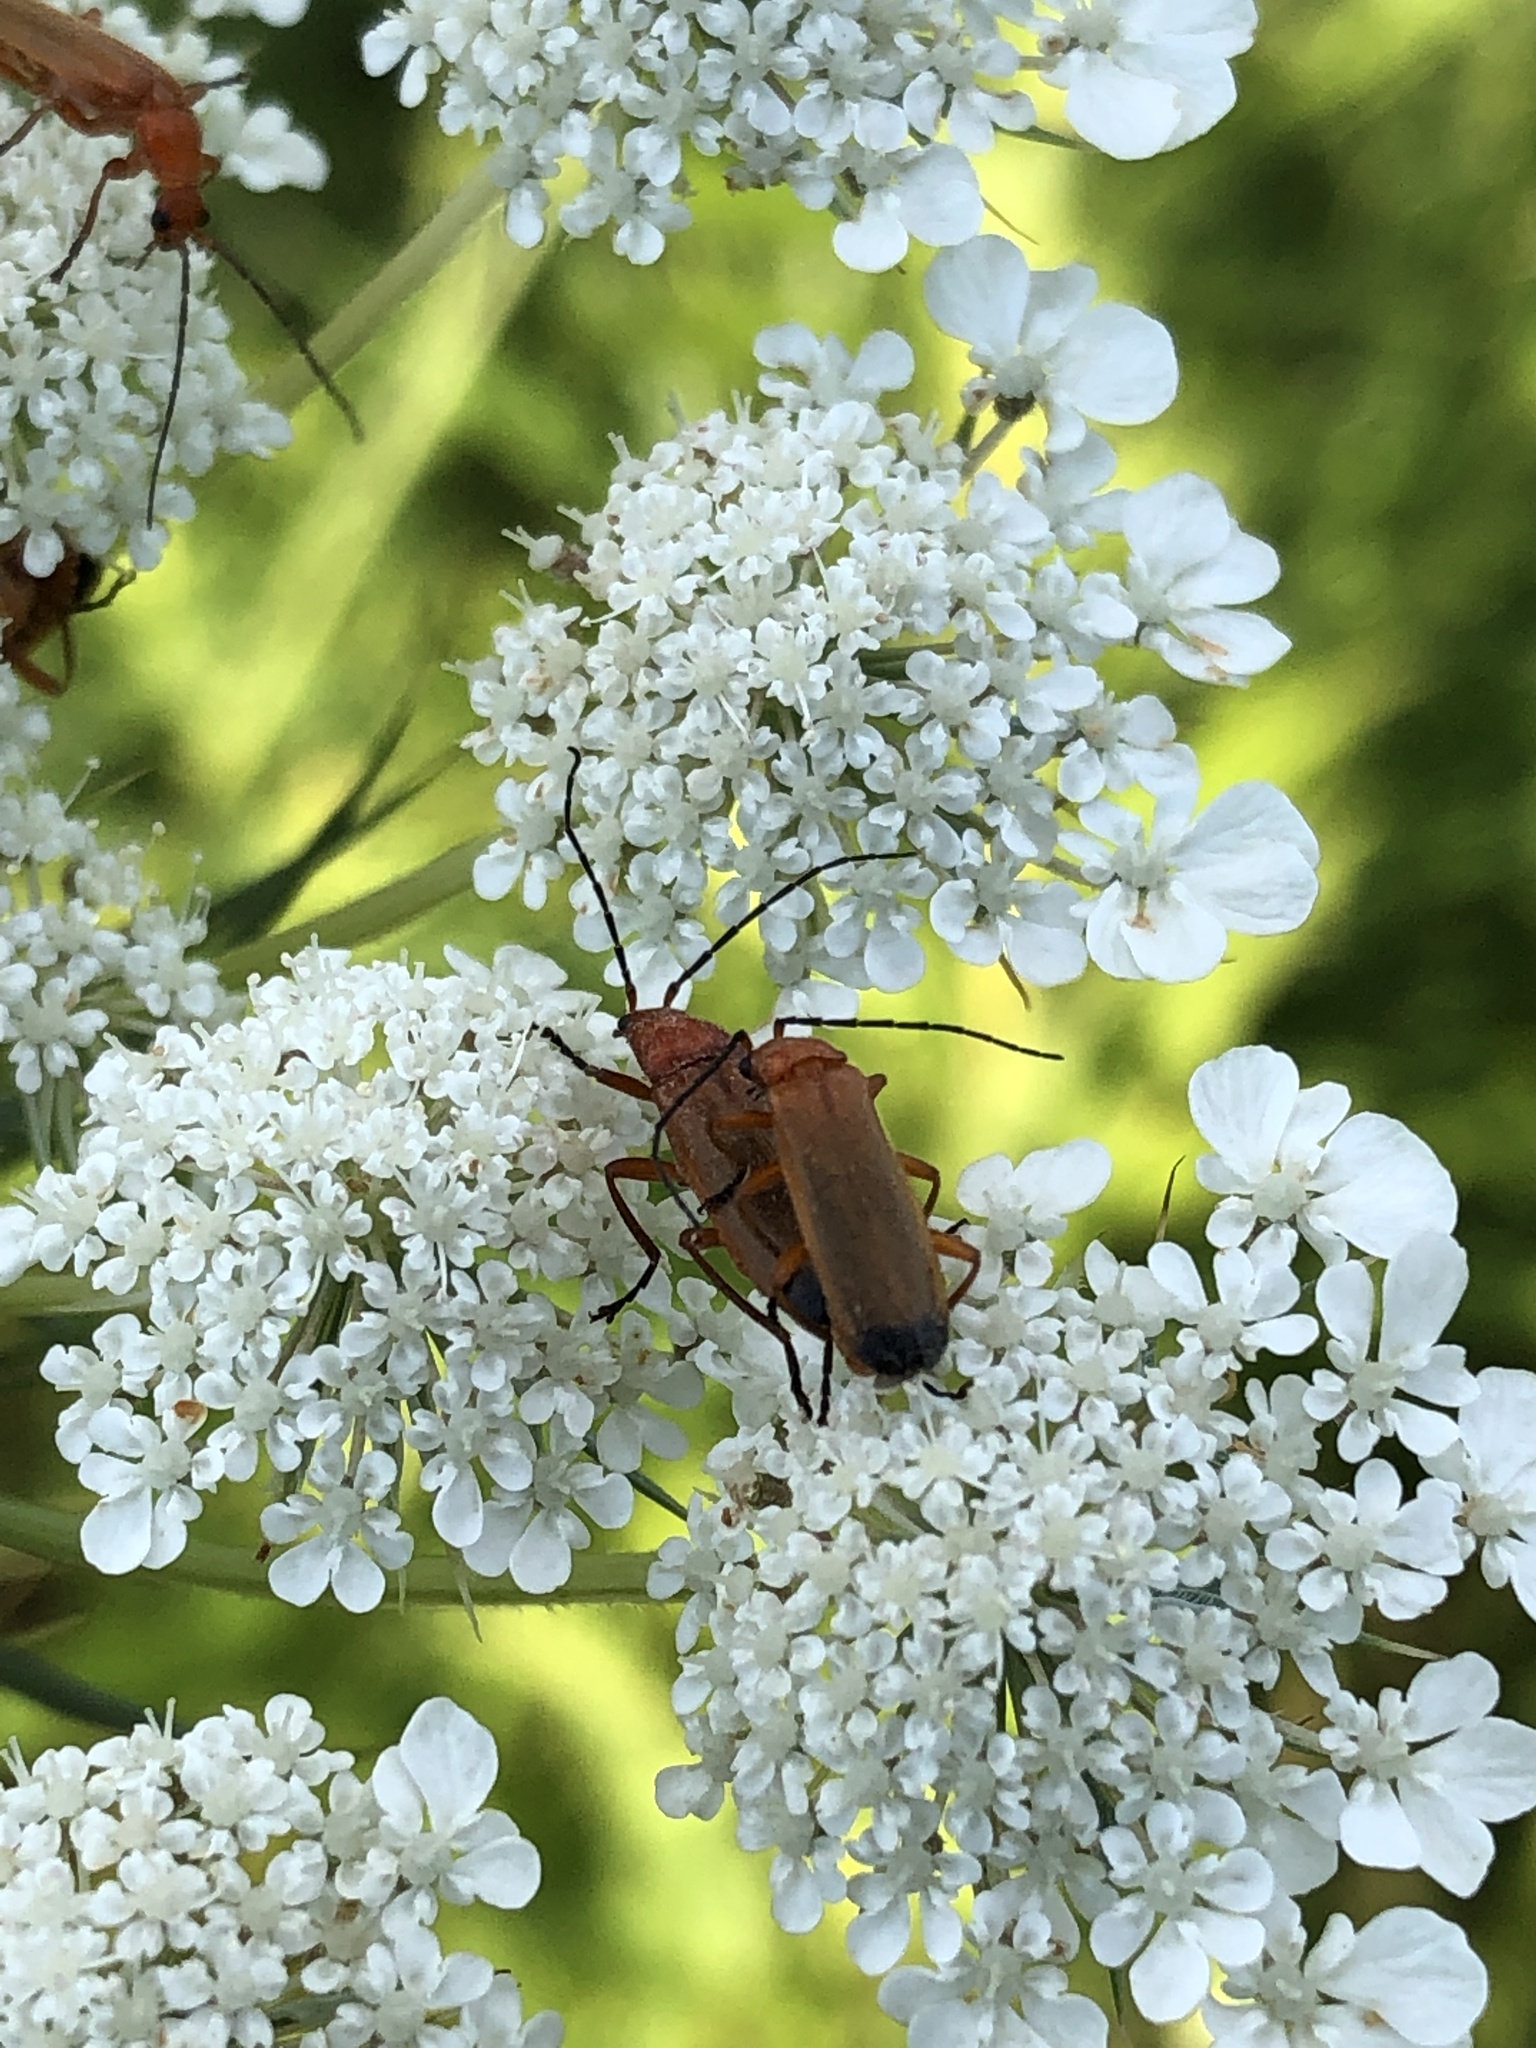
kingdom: Animalia
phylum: Arthropoda
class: Insecta
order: Coleoptera
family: Cantharidae
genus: Rhagonycha
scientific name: Rhagonycha fulva
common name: Common red soldier beetle
